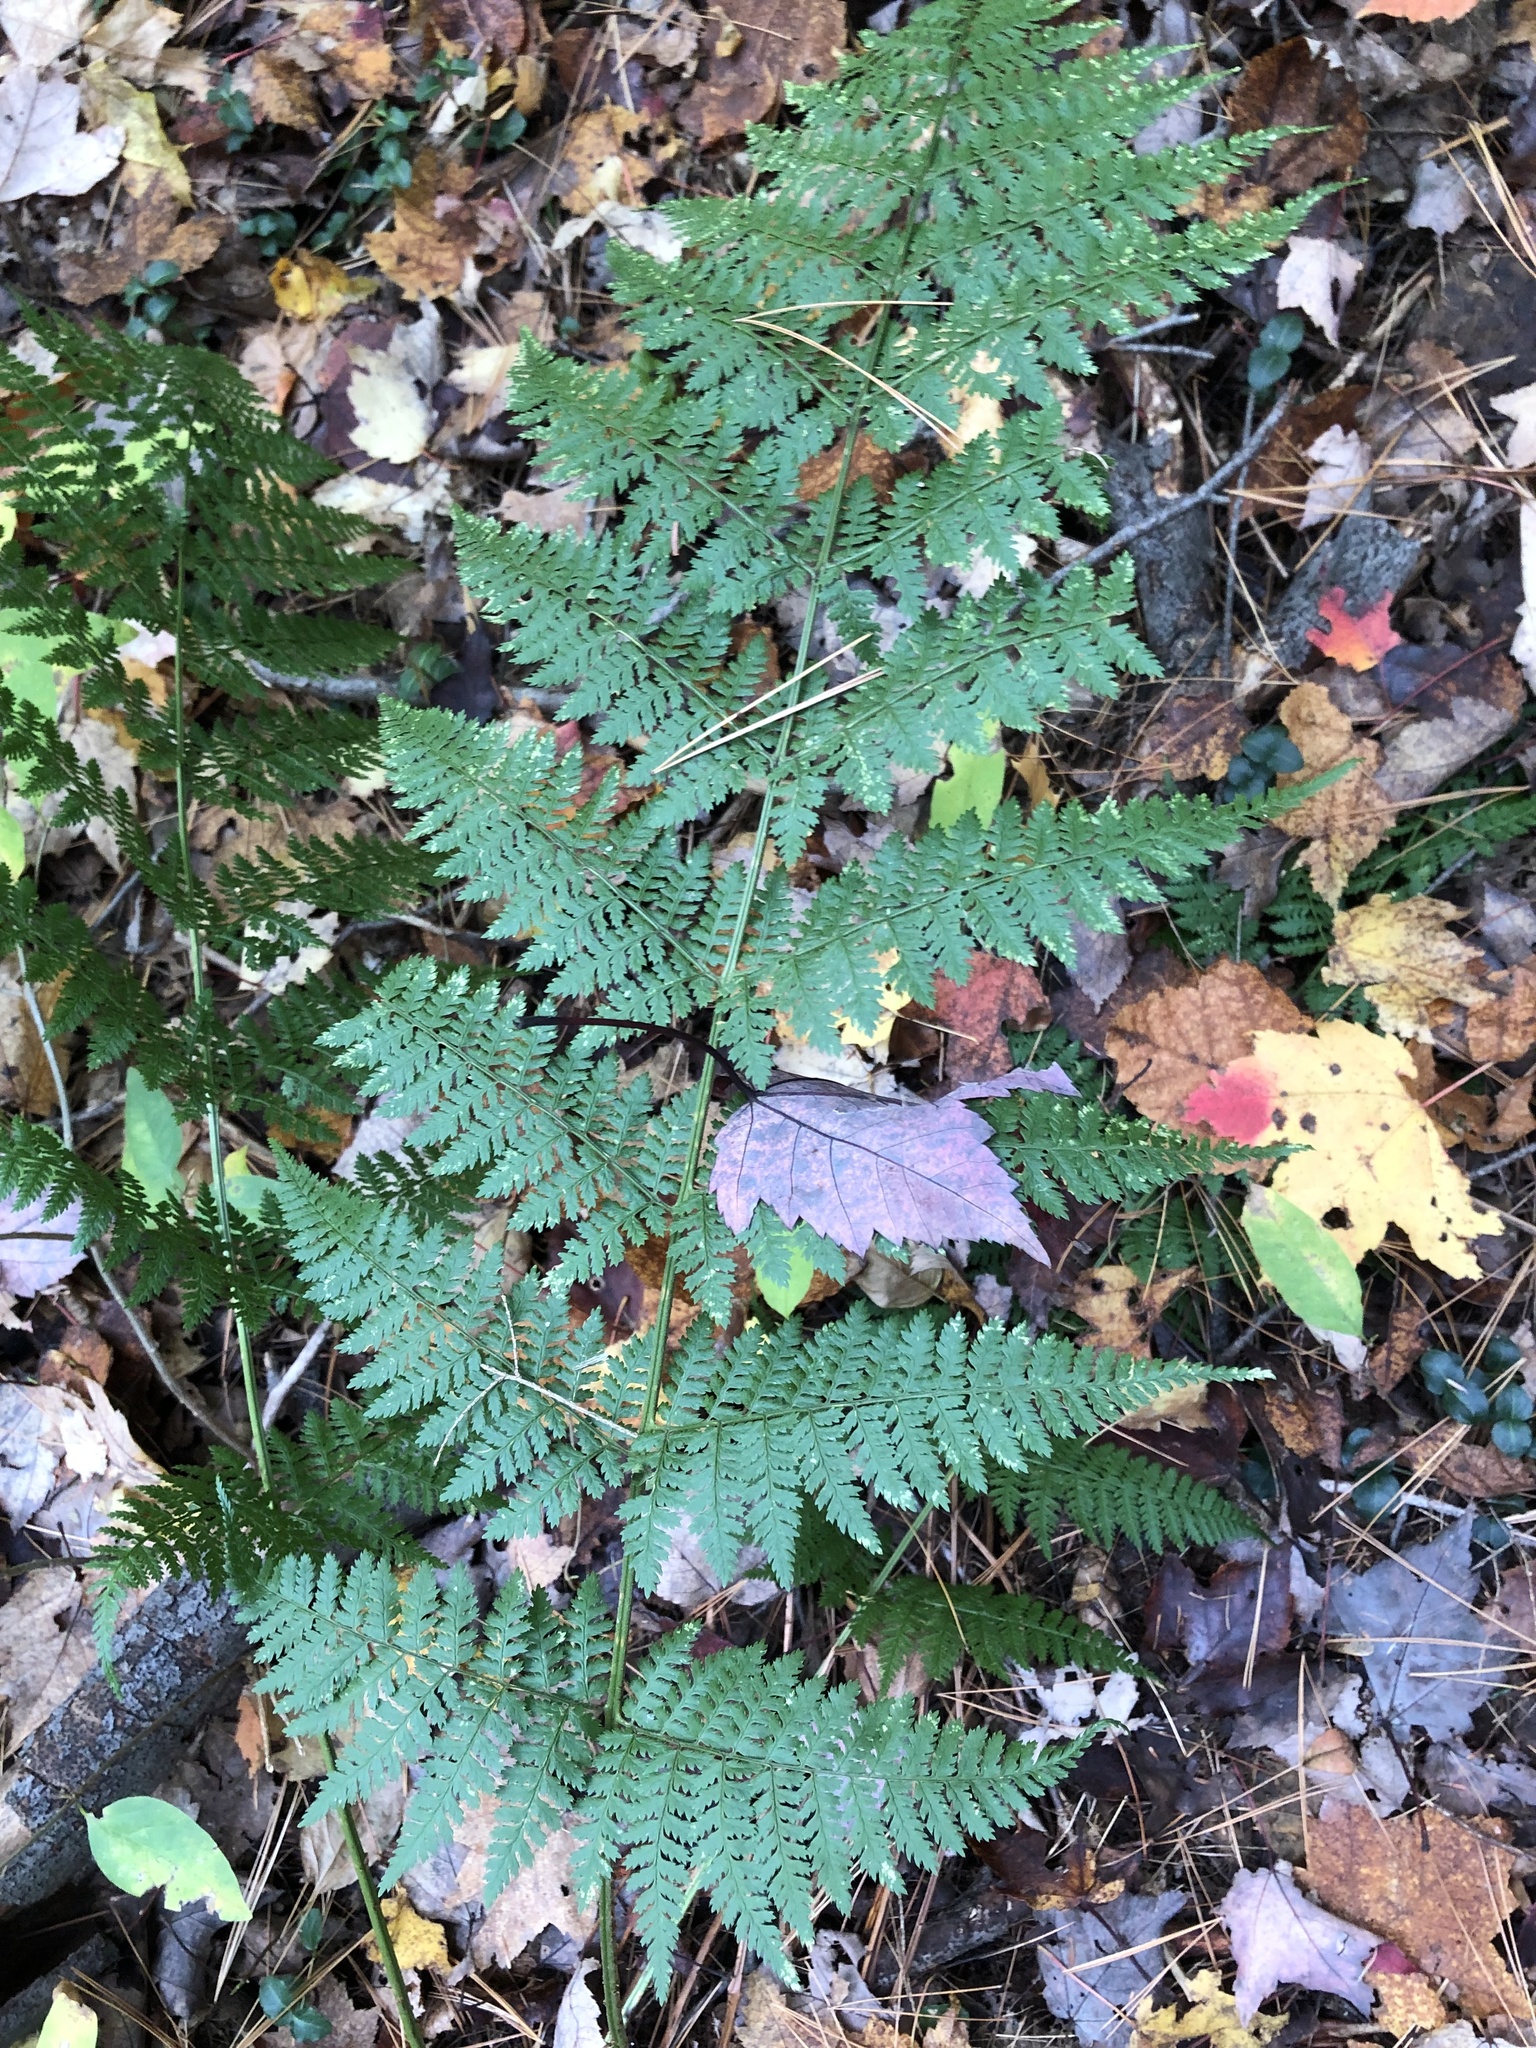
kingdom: Plantae
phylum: Tracheophyta
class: Polypodiopsida
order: Polypodiales
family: Dryopteridaceae
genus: Dryopteris
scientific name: Dryopteris intermedia
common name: Evergreen wood fern
